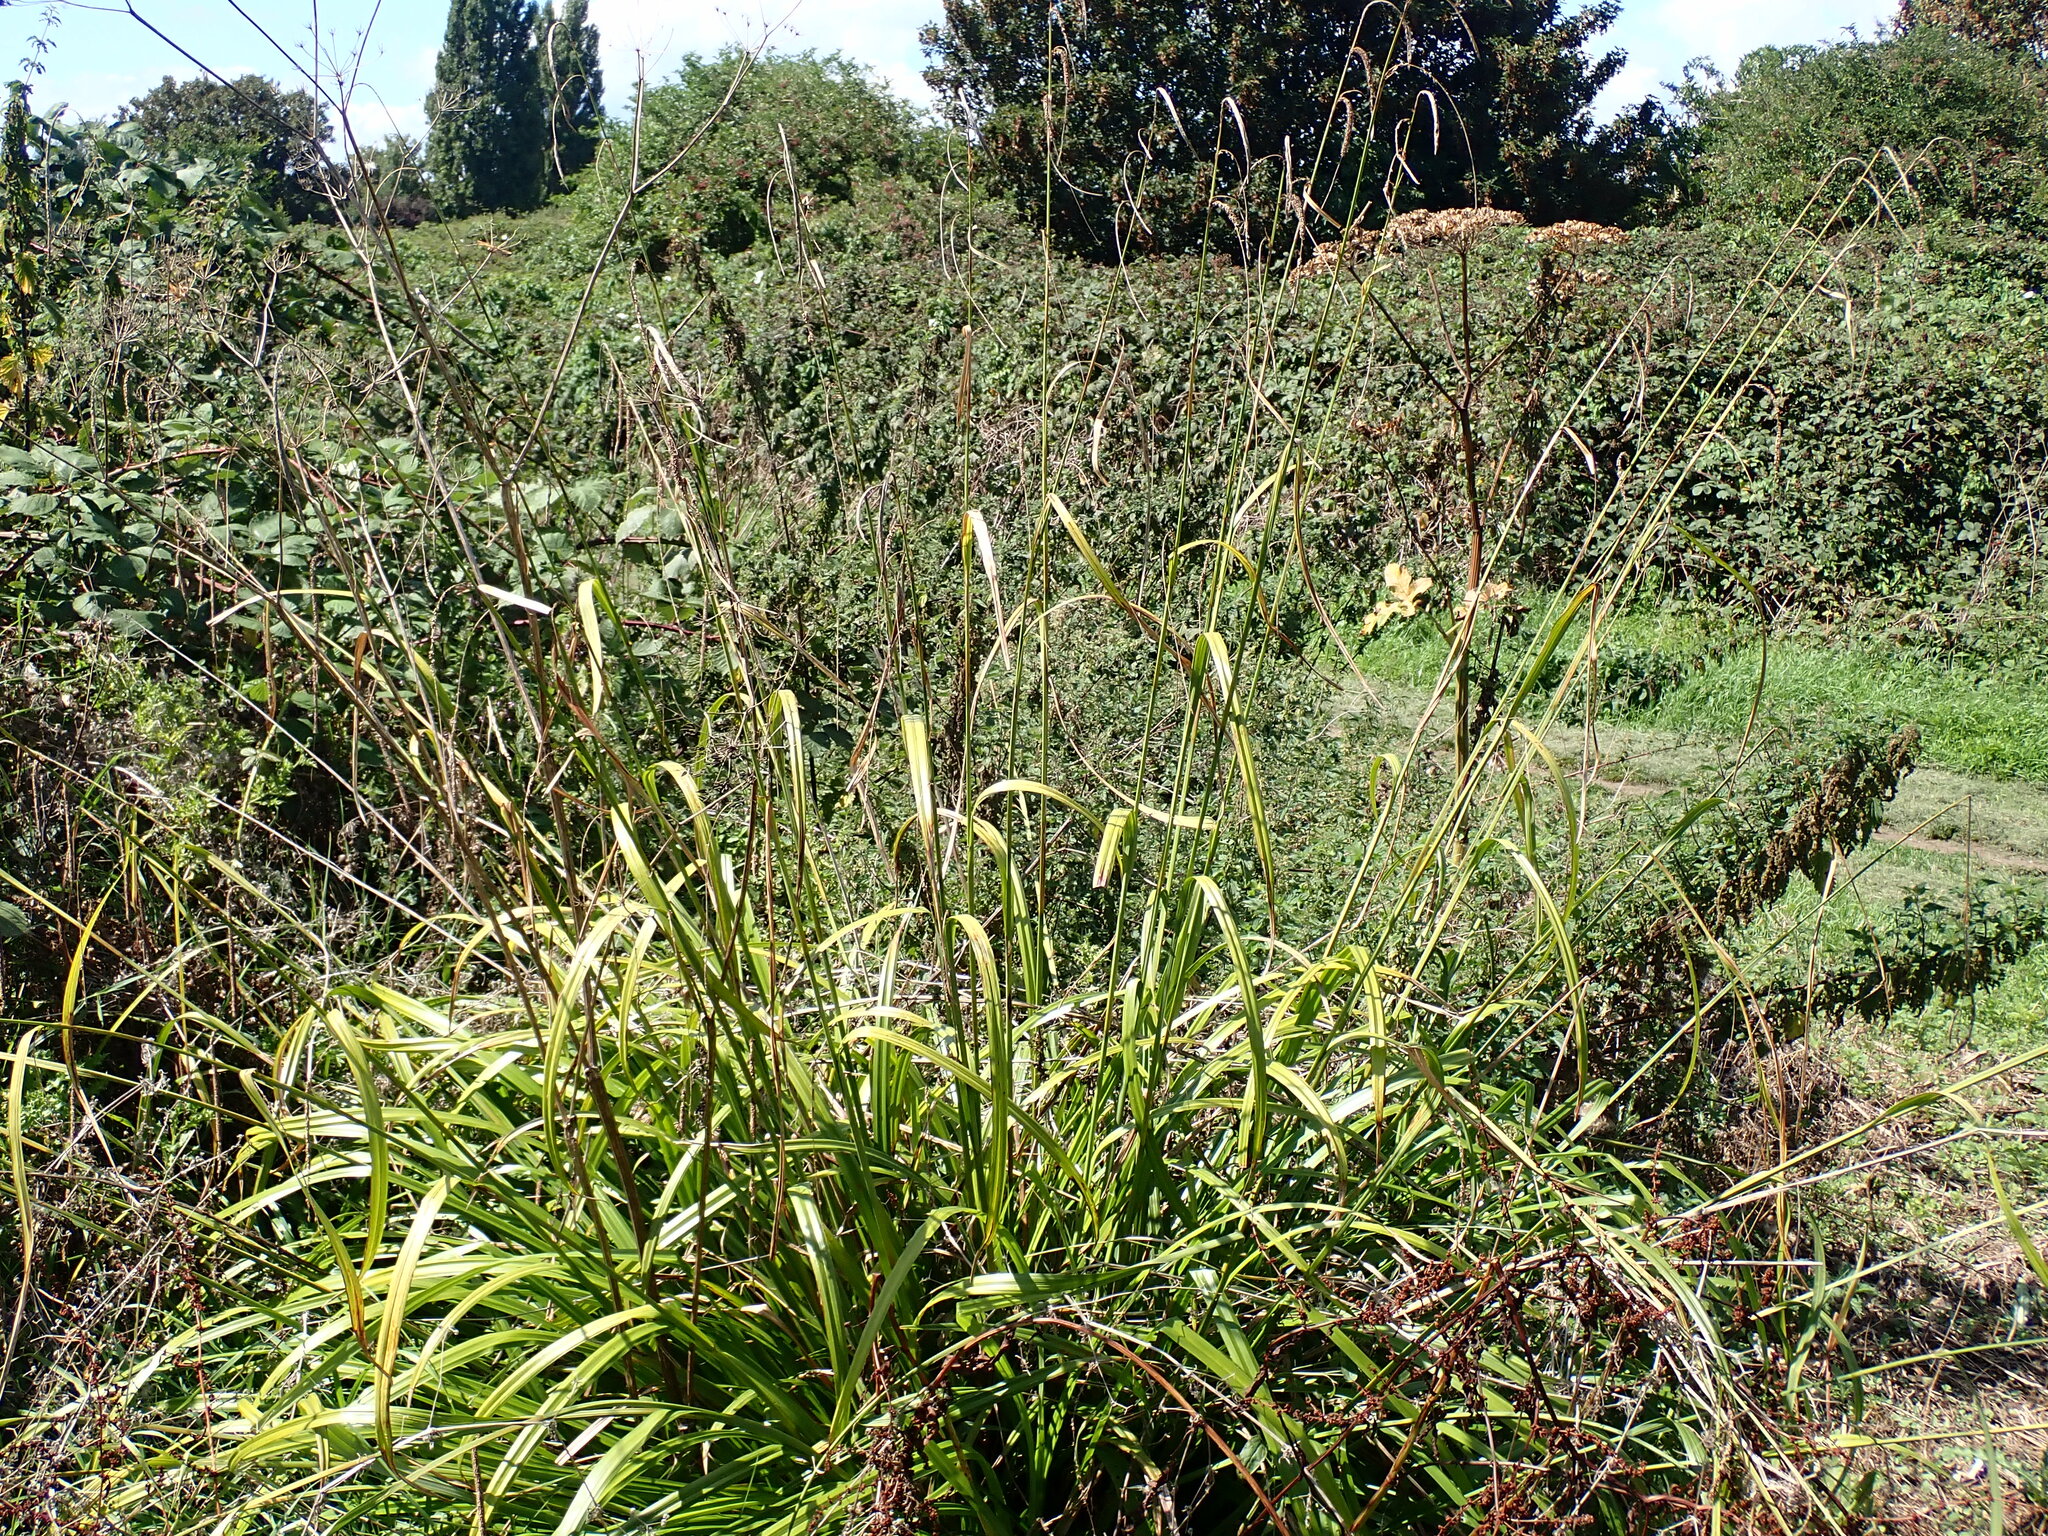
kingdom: Plantae
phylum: Tracheophyta
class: Liliopsida
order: Poales
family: Cyperaceae
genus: Carex
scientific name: Carex pendula
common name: Pendulous sedge
